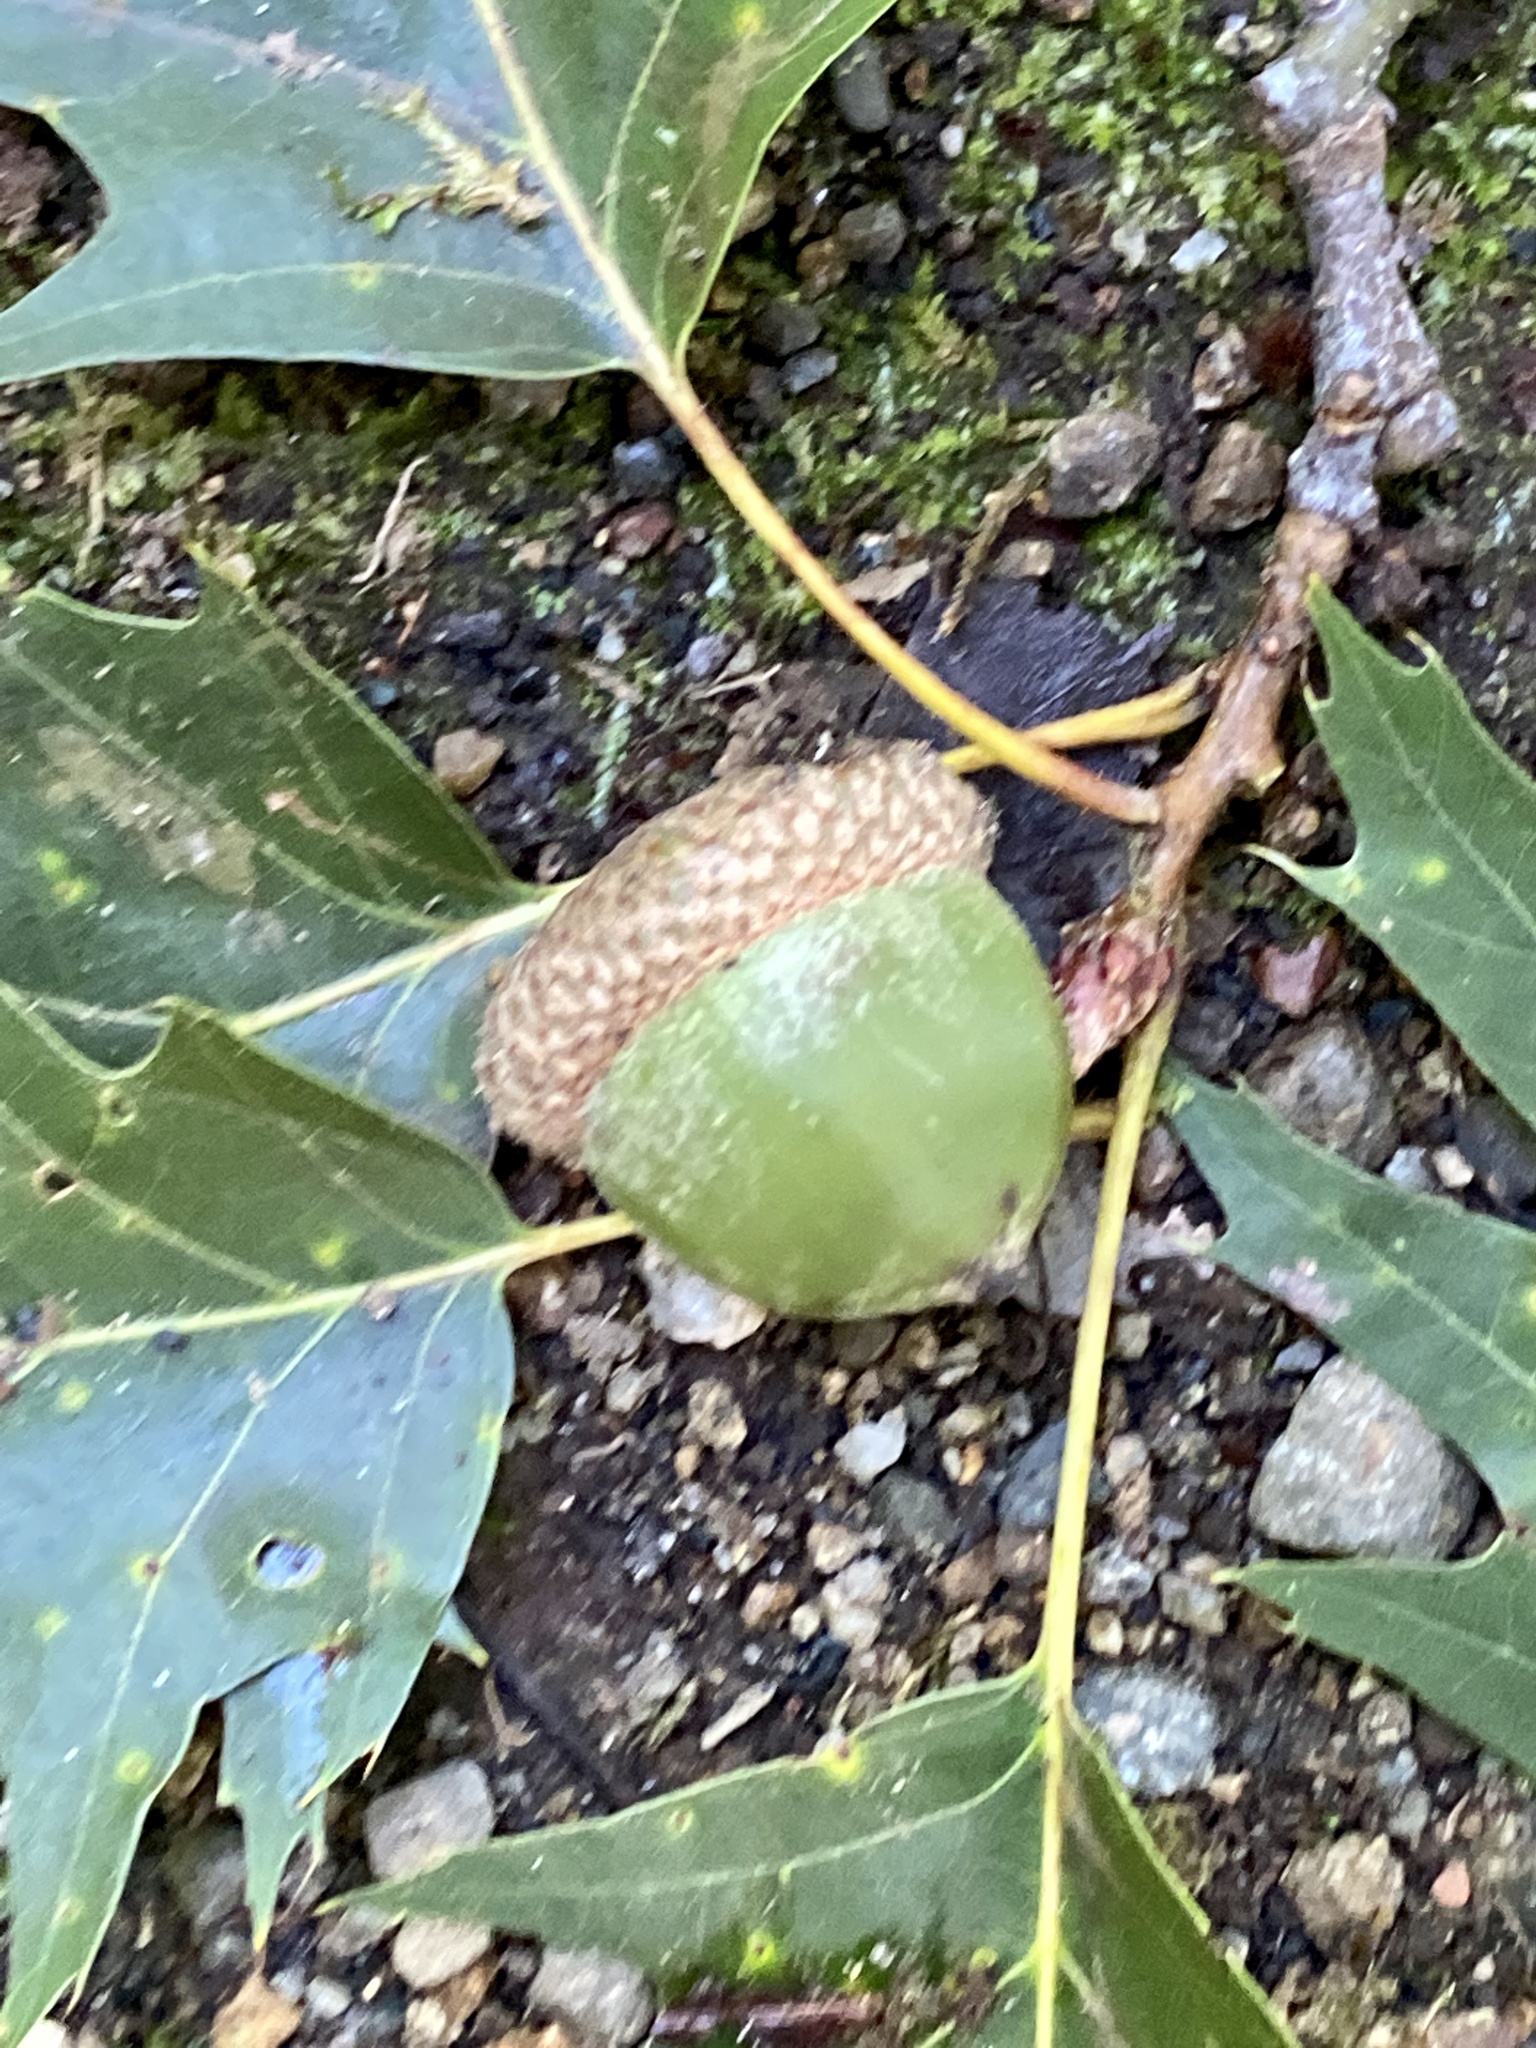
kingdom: Plantae
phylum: Tracheophyta
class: Magnoliopsida
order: Fagales
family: Fagaceae
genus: Quercus
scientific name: Quercus rubra
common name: Red oak
